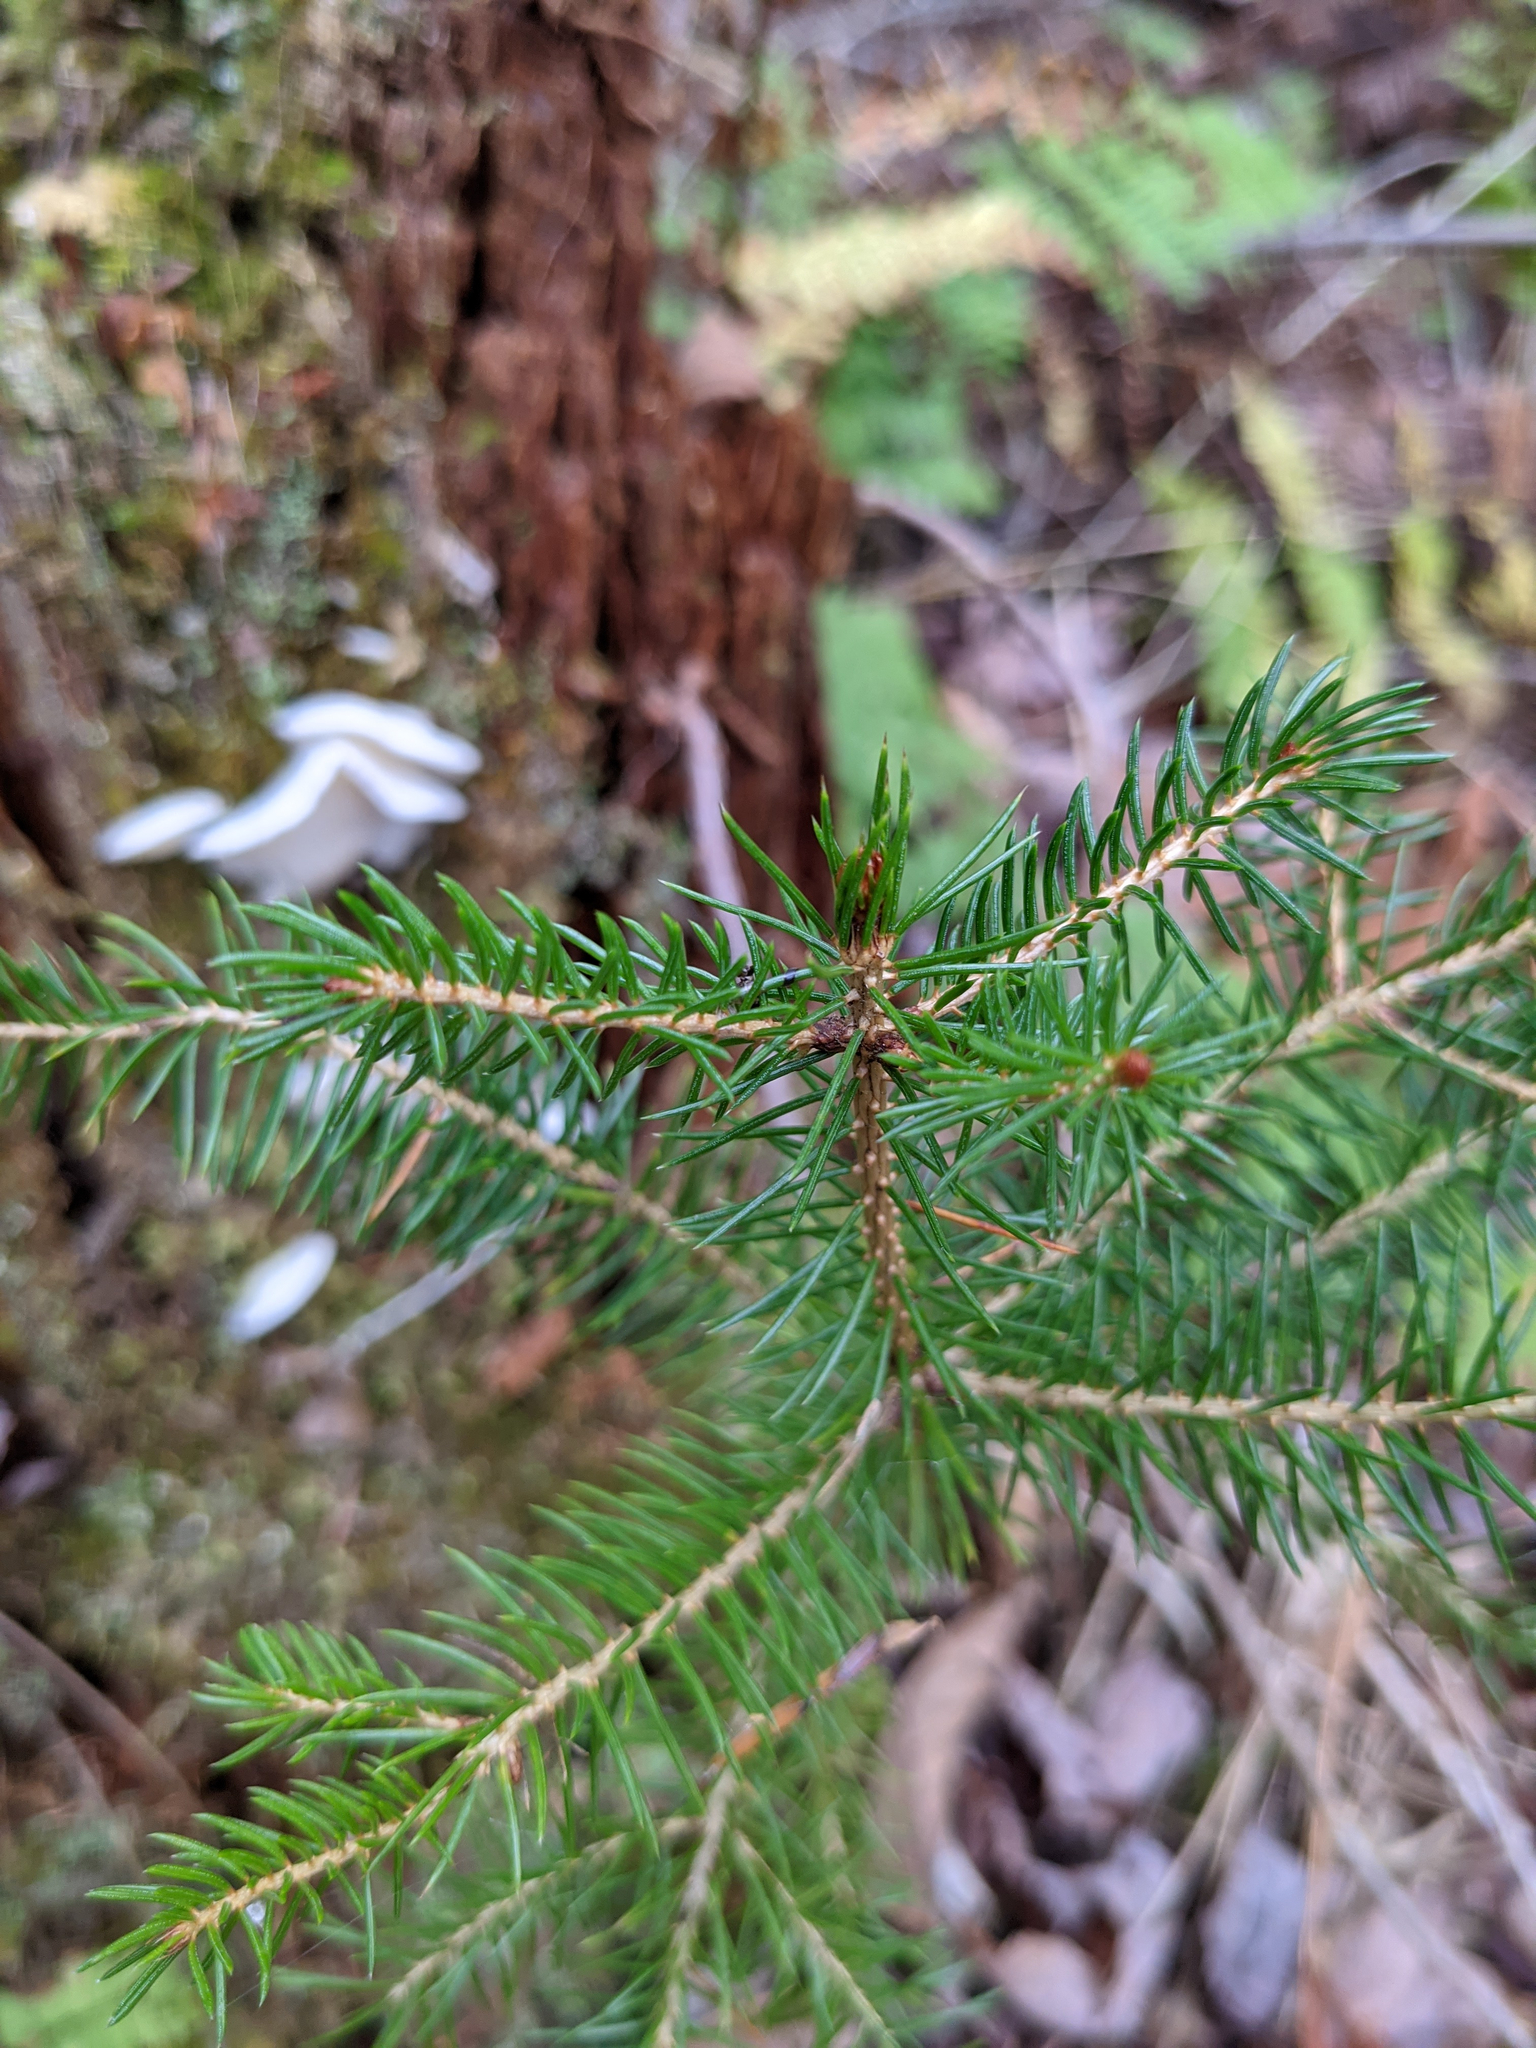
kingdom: Plantae
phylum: Tracheophyta
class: Pinopsida
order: Pinales
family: Pinaceae
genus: Picea
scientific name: Picea rubens
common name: Red spruce
